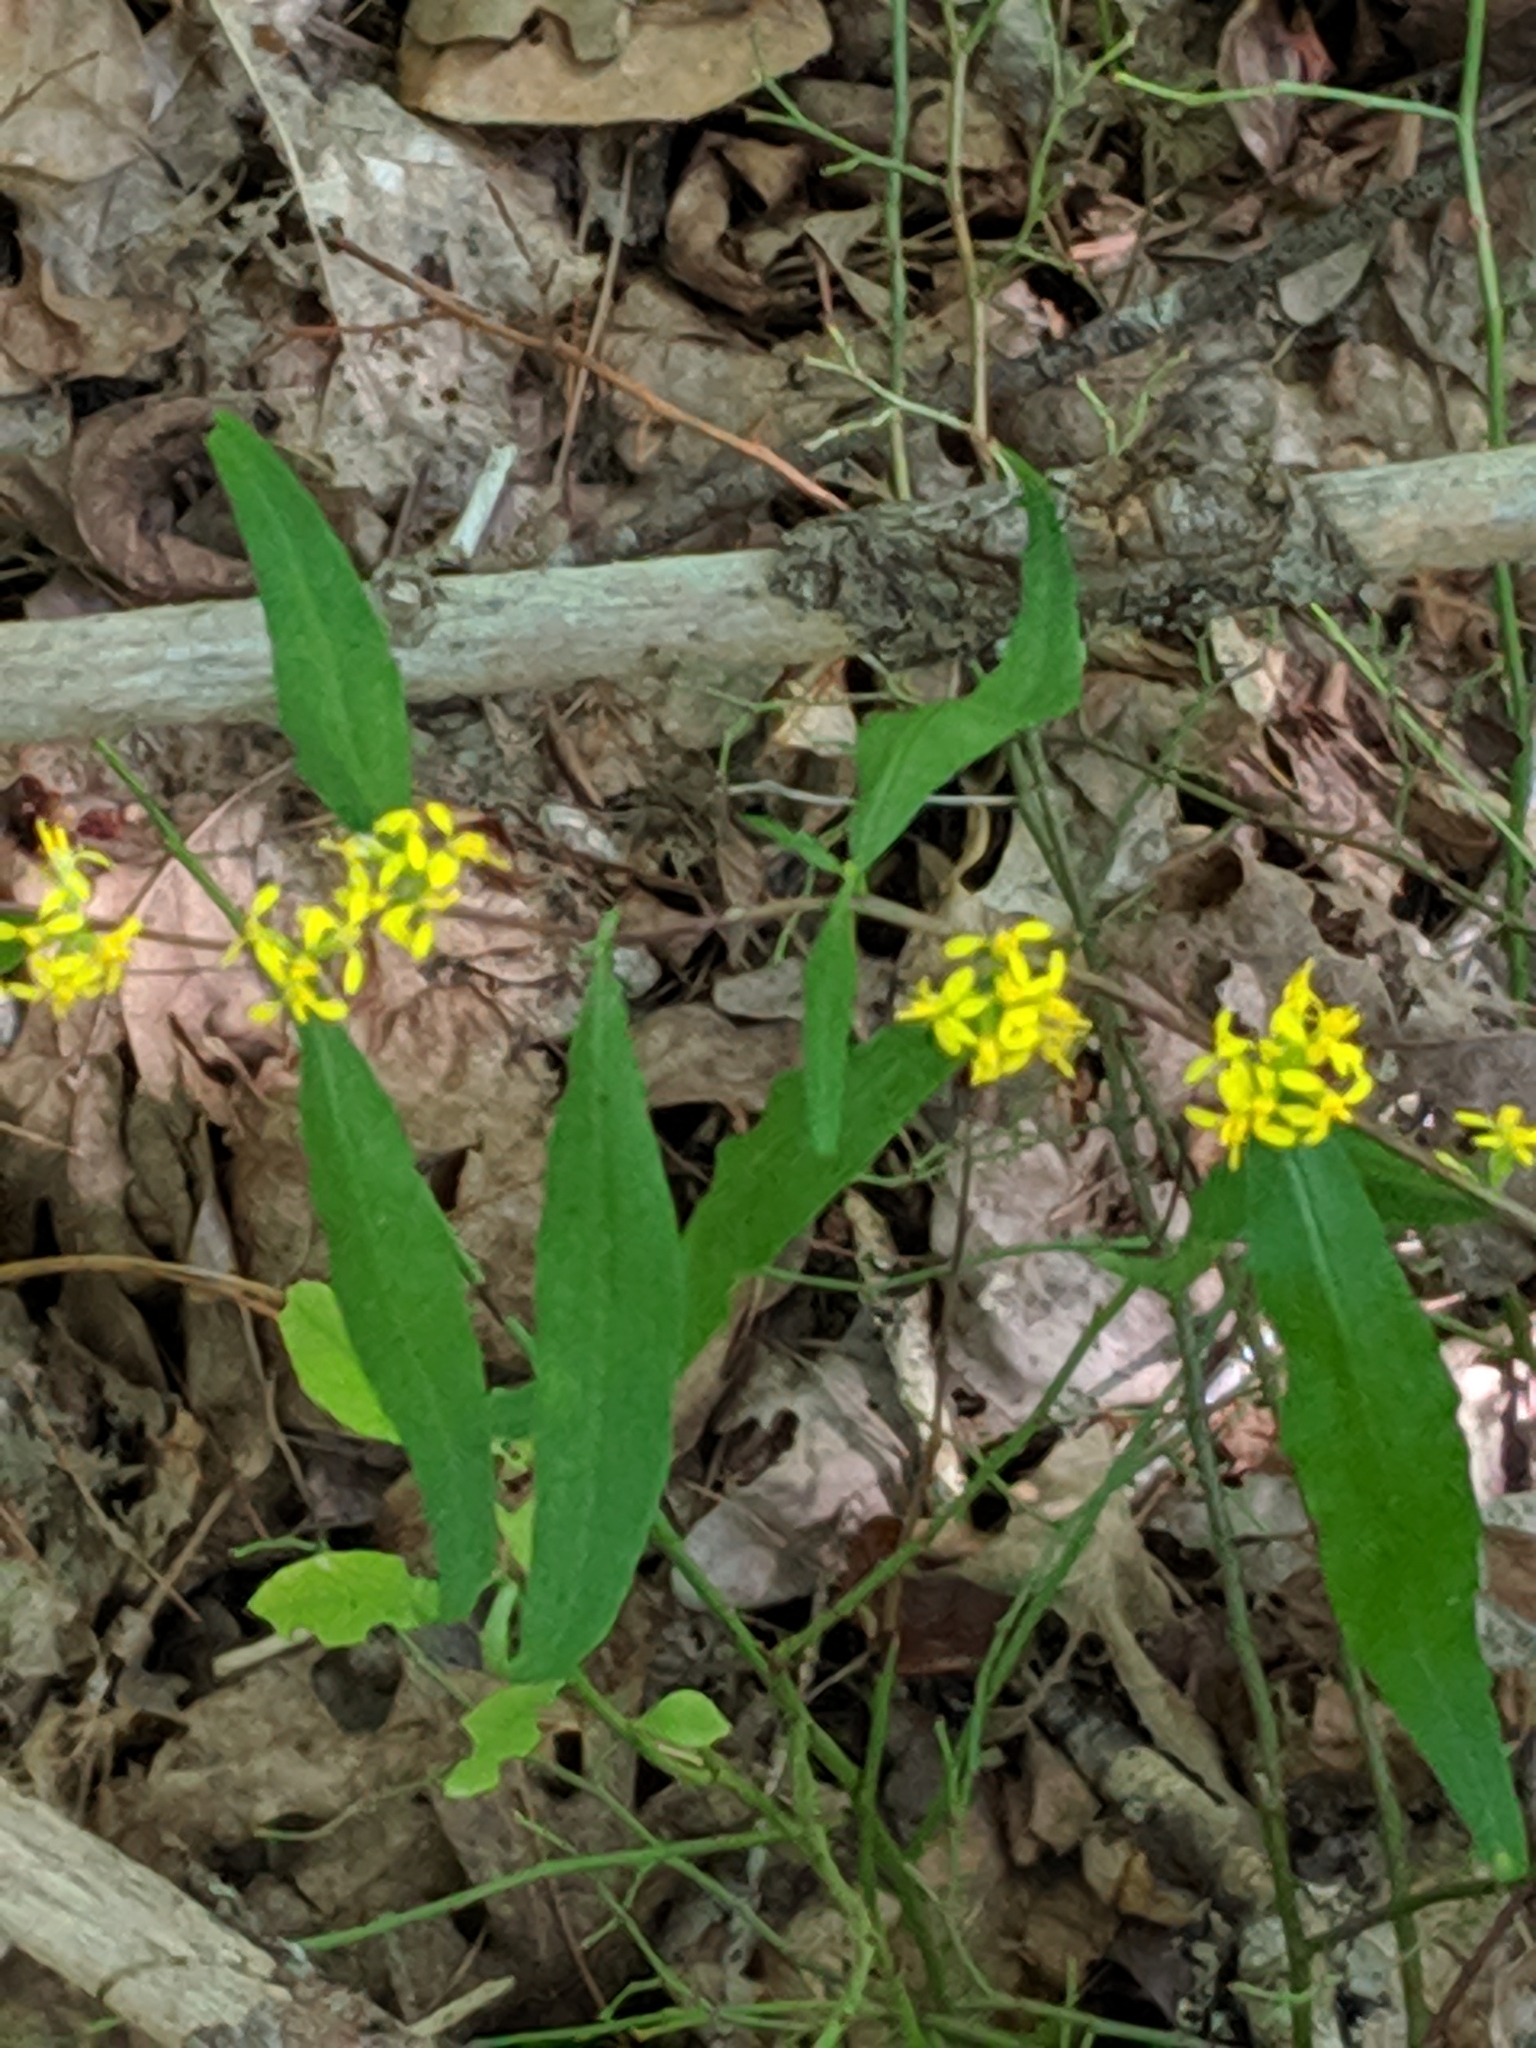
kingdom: Plantae
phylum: Tracheophyta
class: Magnoliopsida
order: Asterales
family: Asteraceae
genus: Solidago
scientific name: Solidago caesia
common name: Woodland goldenrod
